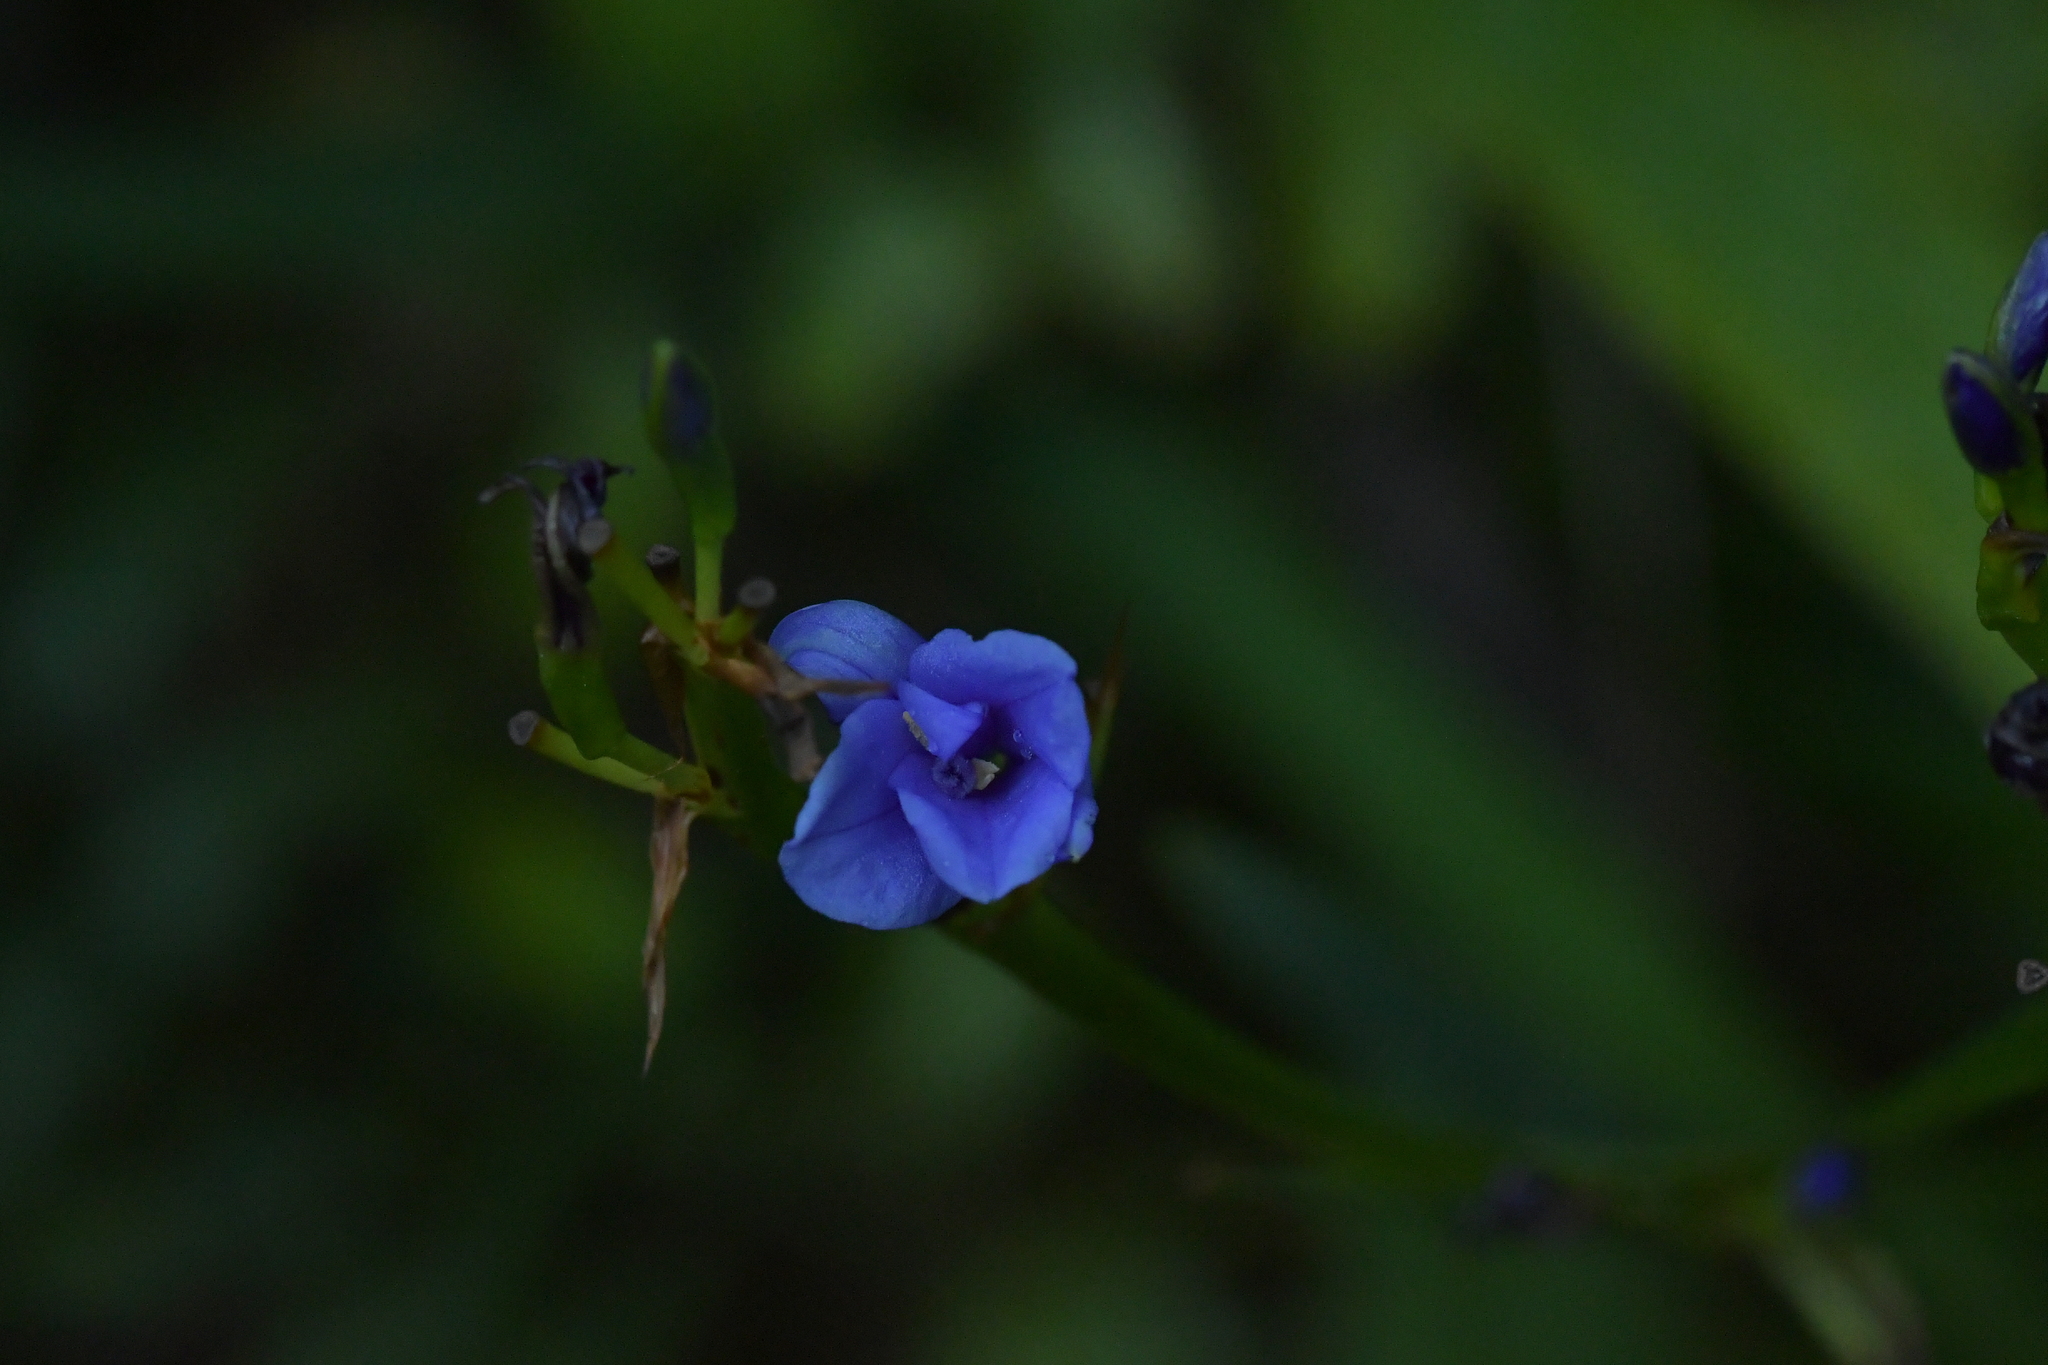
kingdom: Plantae
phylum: Tracheophyta
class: Liliopsida
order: Asparagales
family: Iridaceae
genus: Aristea
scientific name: Aristea ecklonii
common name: Blue corn-lily
